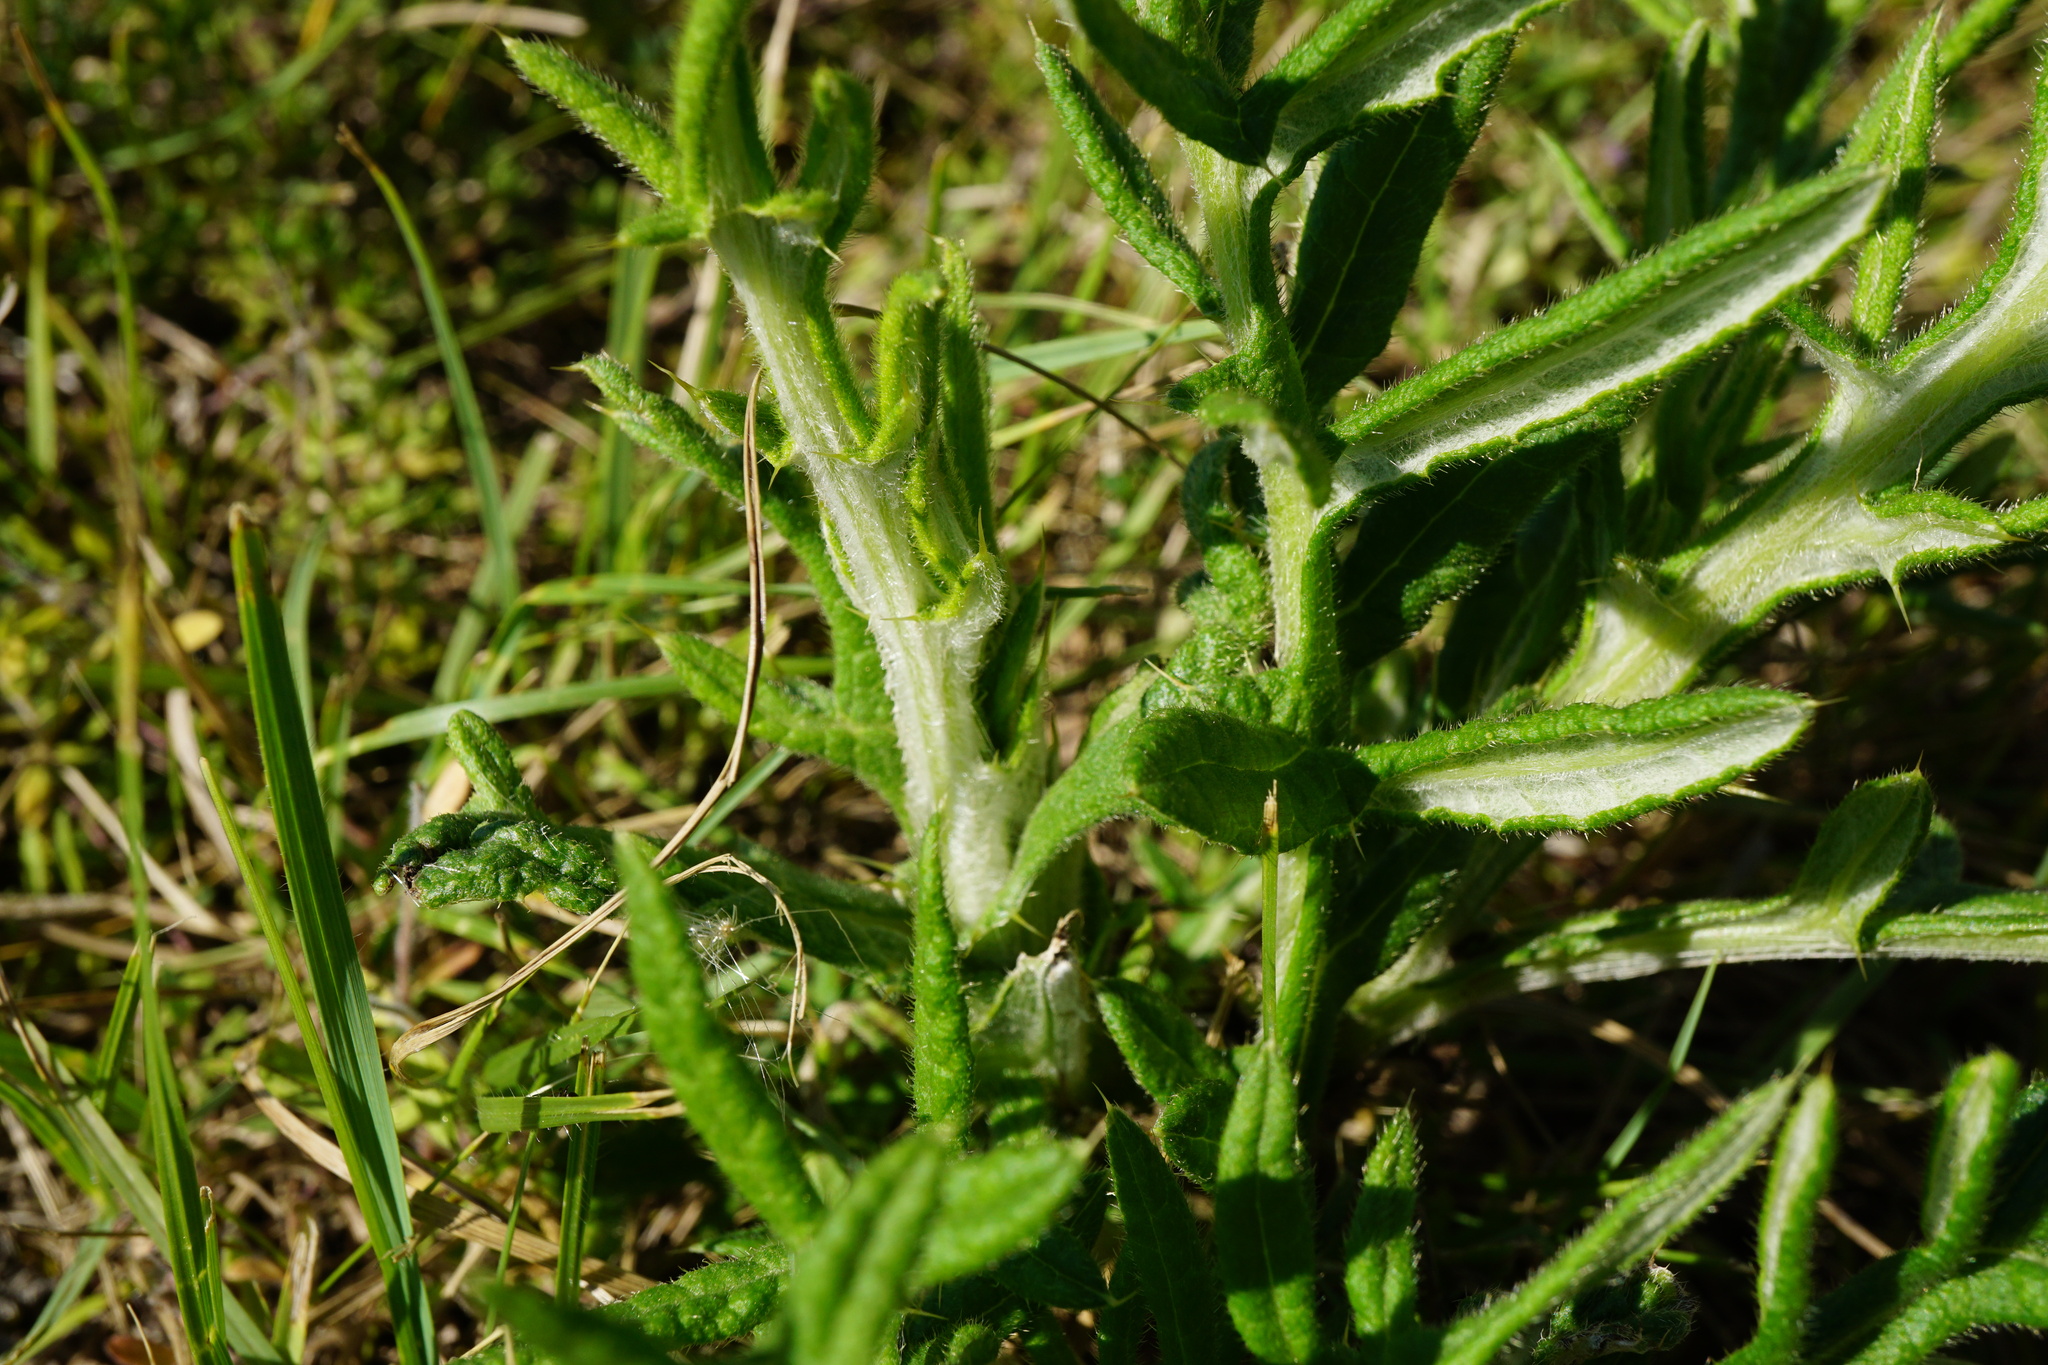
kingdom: Plantae
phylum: Tracheophyta
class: Magnoliopsida
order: Asterales
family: Asteraceae
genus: Lophiolepis
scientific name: Lophiolepis eriophora
